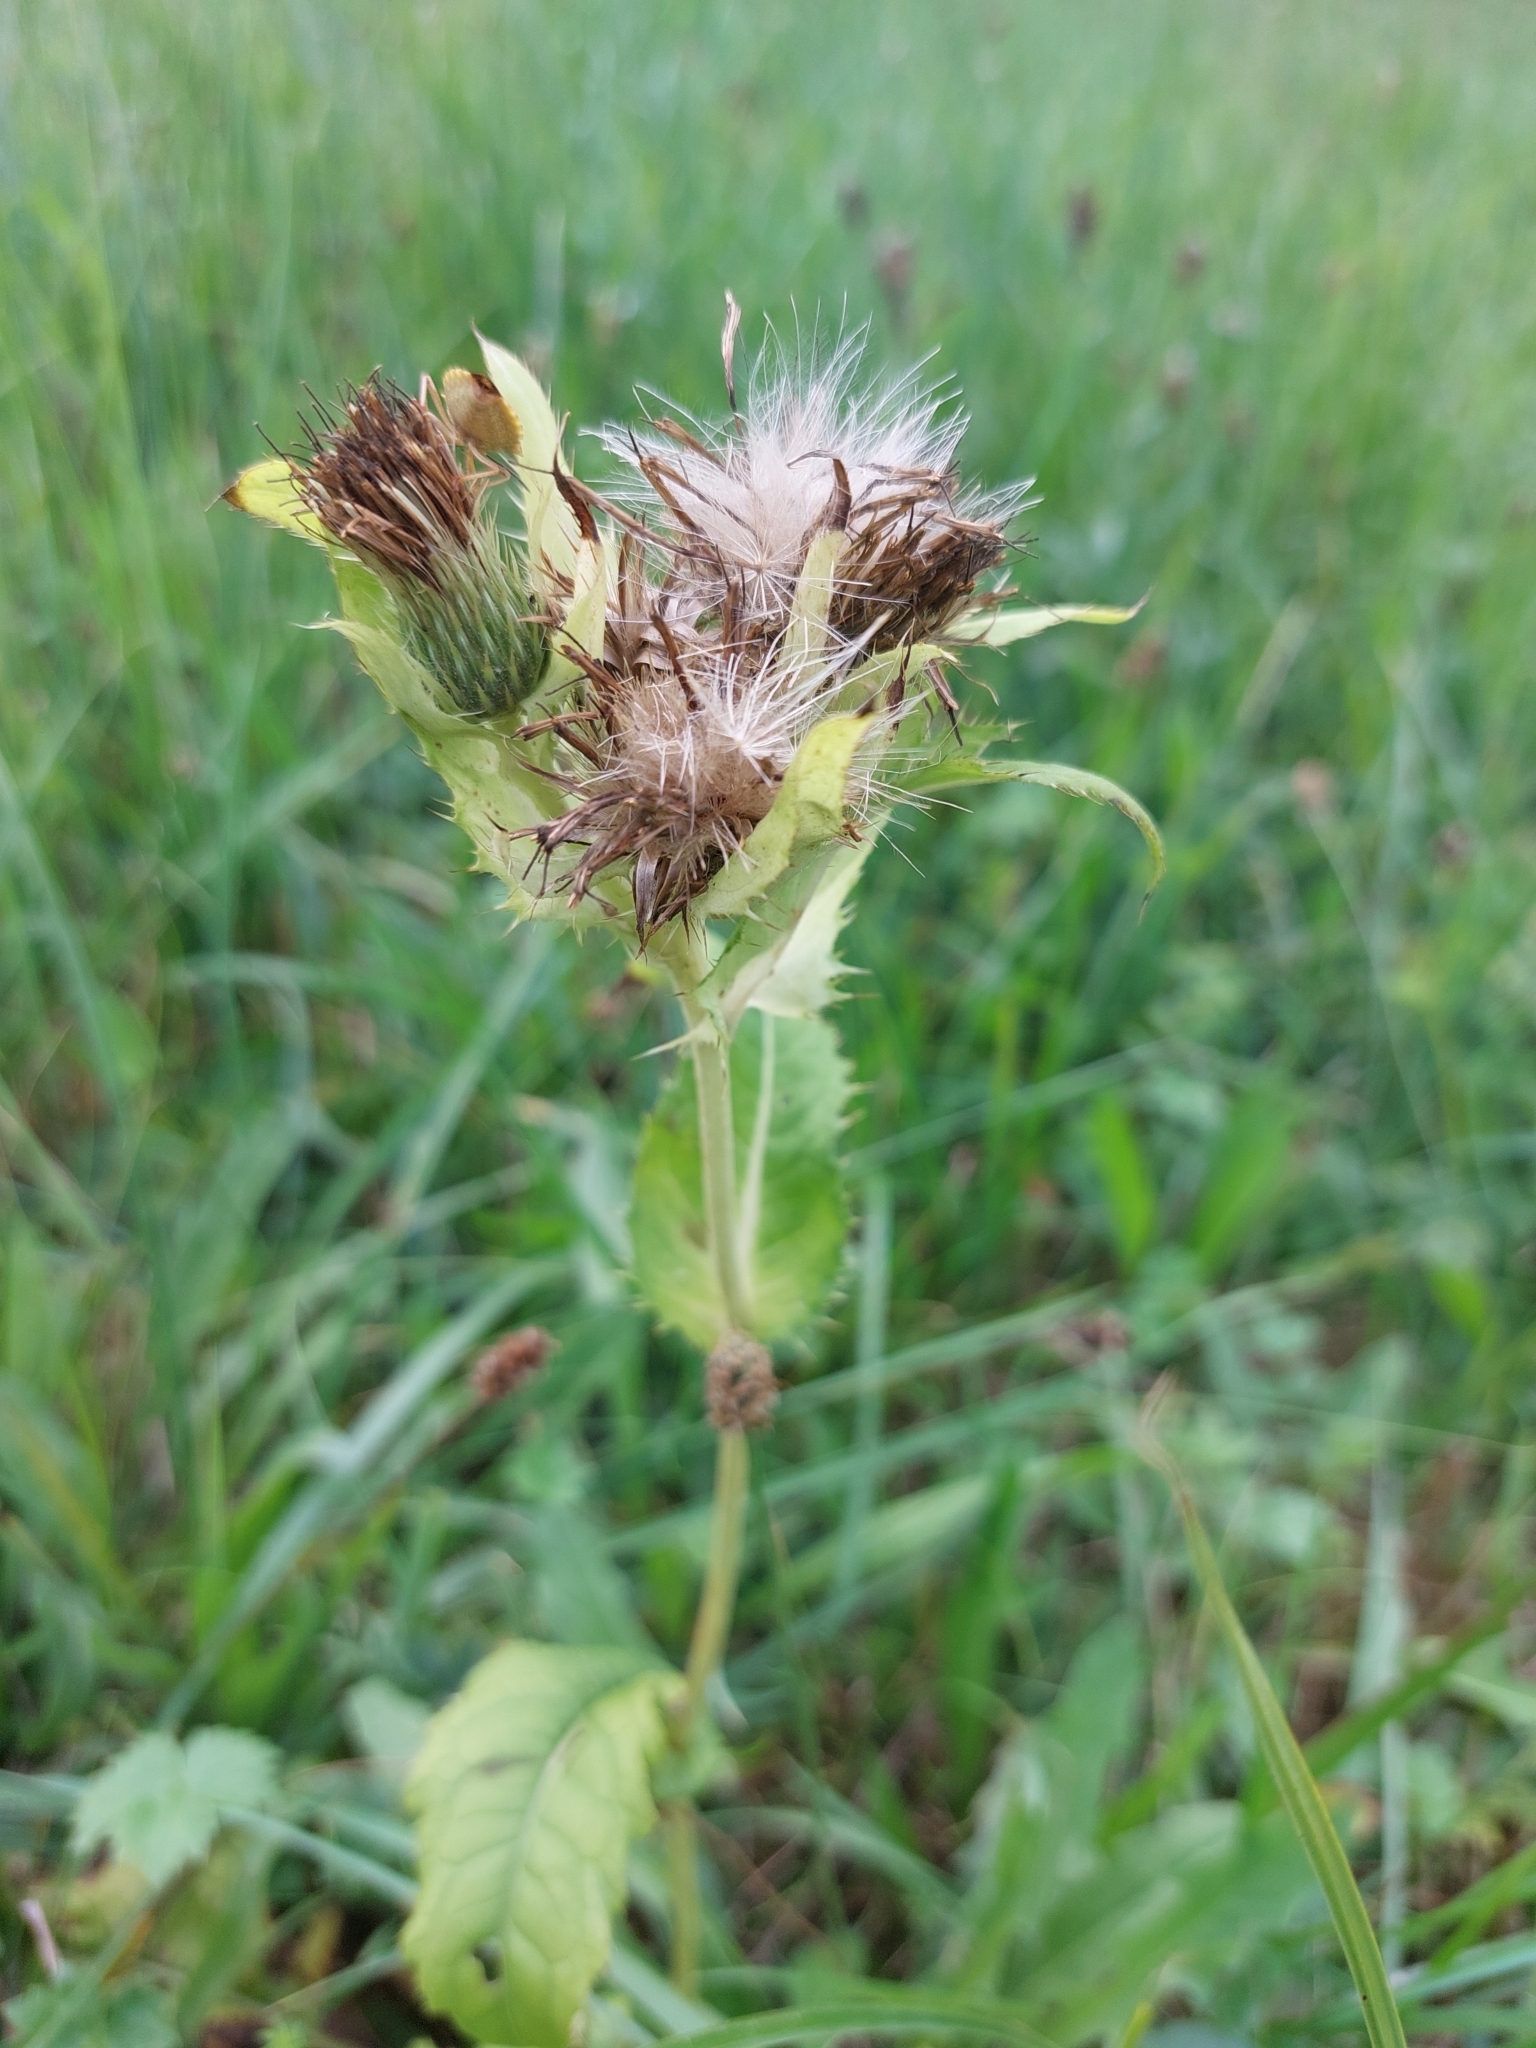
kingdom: Plantae
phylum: Tracheophyta
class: Magnoliopsida
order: Asterales
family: Asteraceae
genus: Cirsium
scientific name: Cirsium oleraceum
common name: Cabbage thistle
